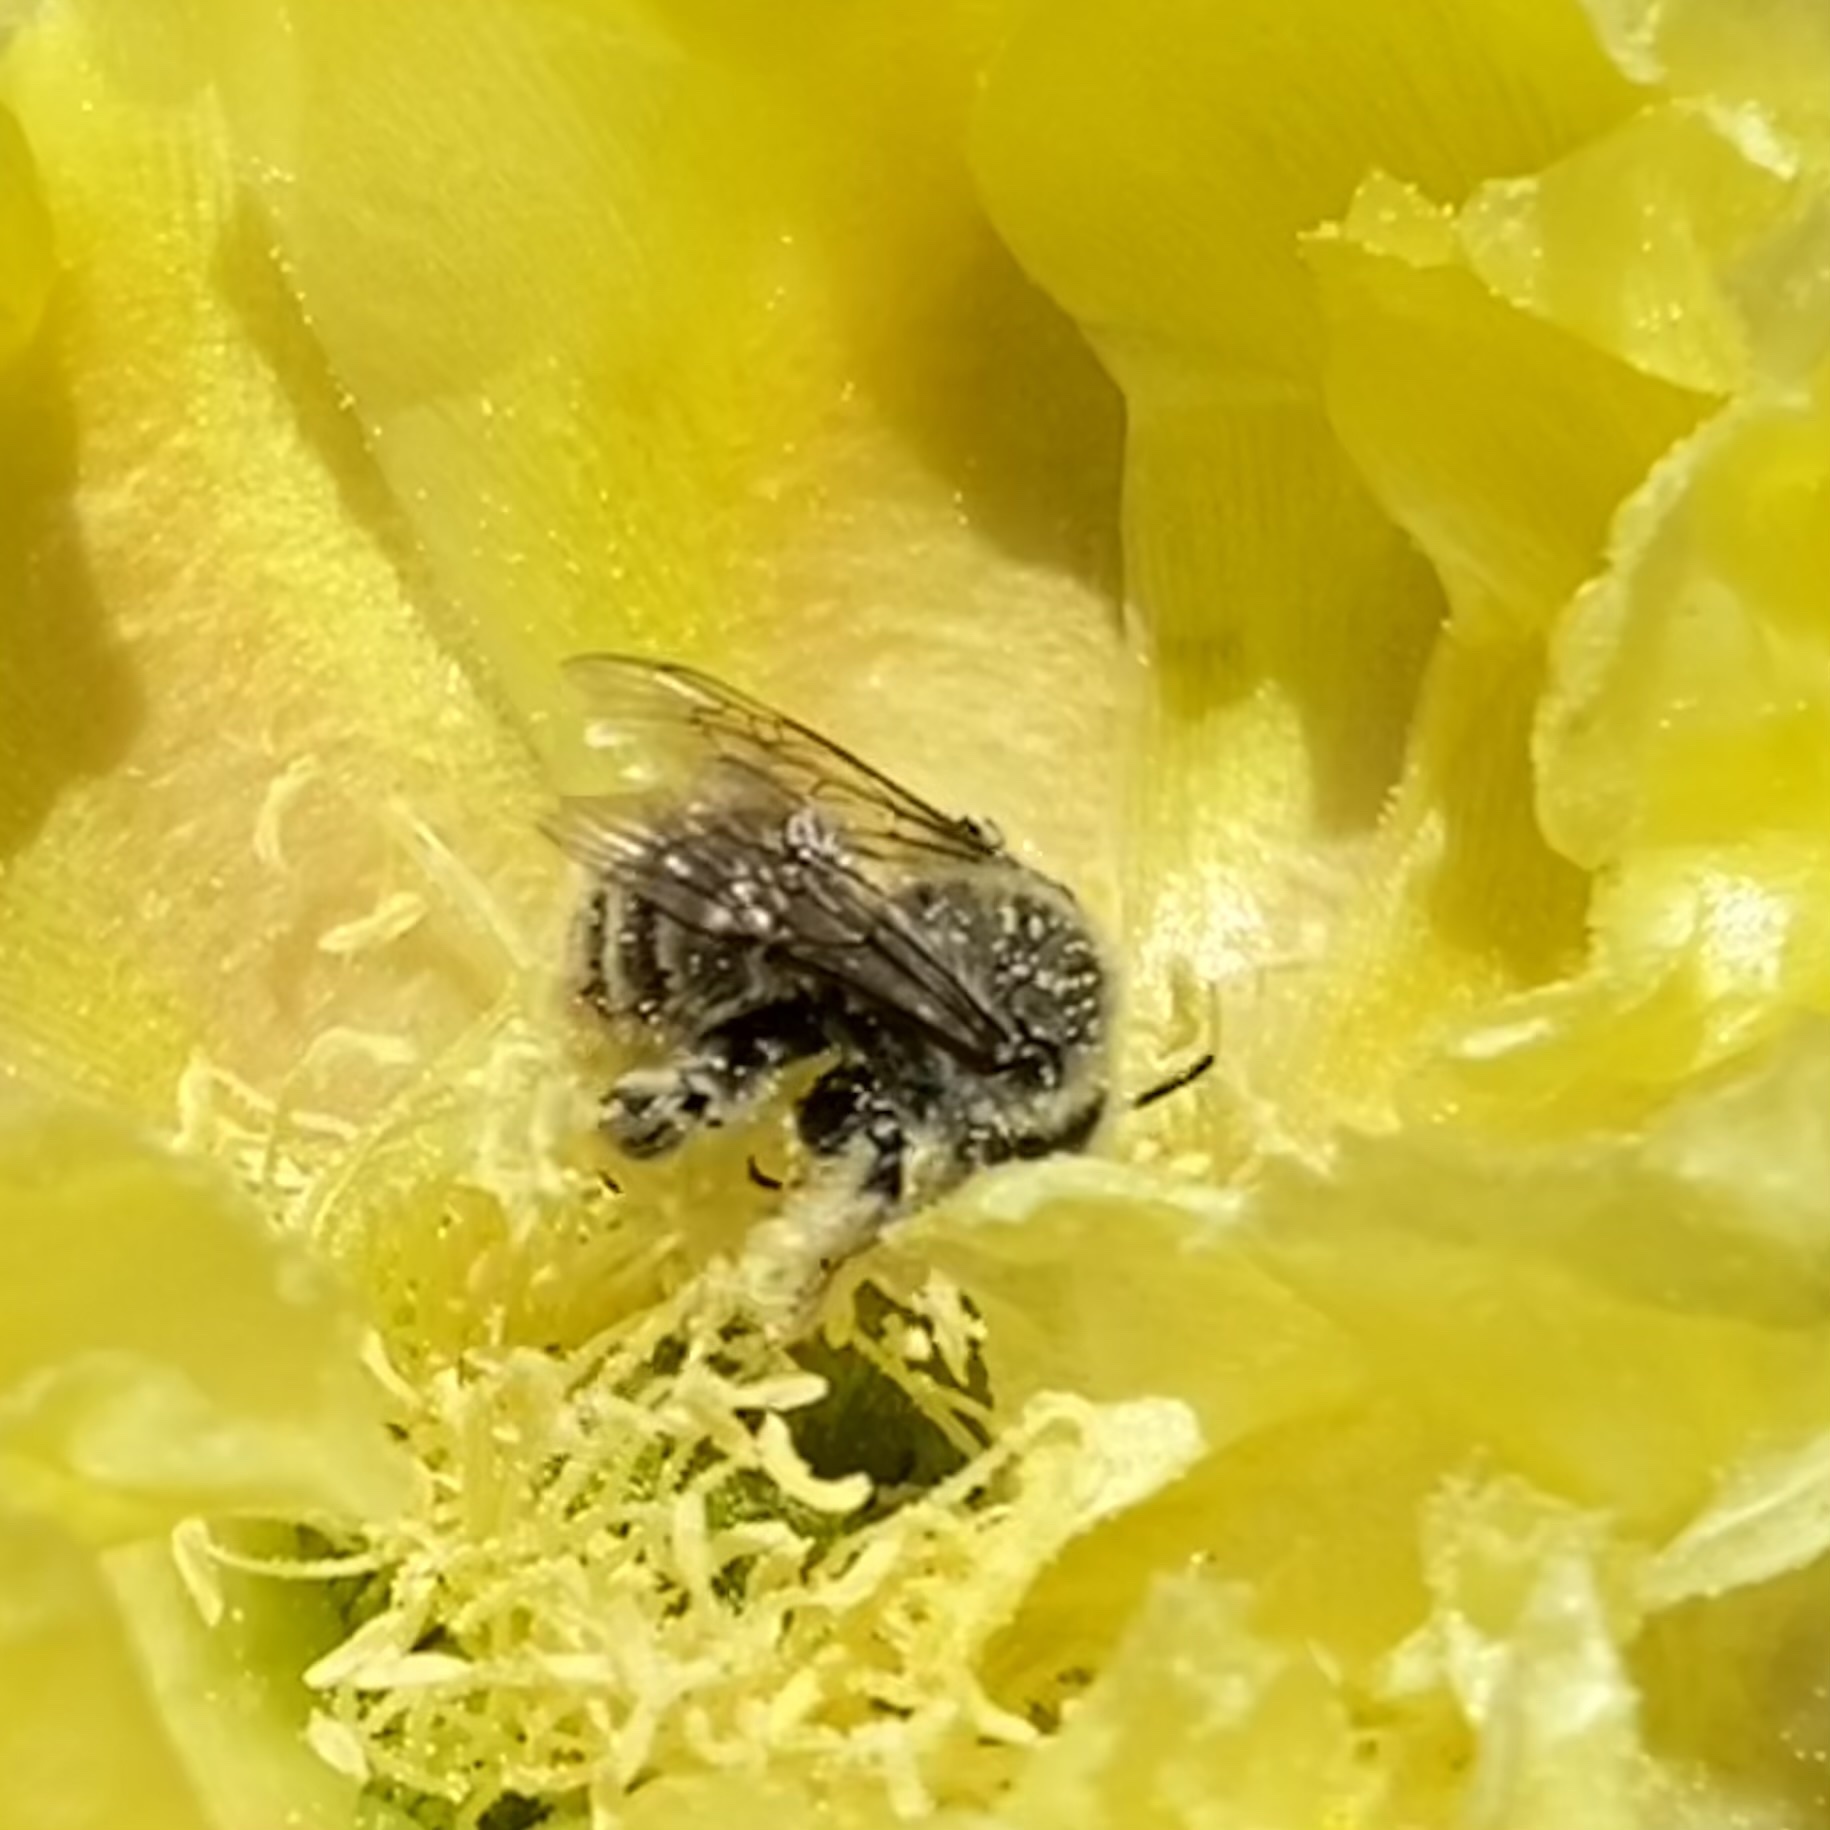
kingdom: Animalia
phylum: Arthropoda
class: Insecta
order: Hymenoptera
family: Apidae
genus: Diadasia
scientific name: Diadasia
